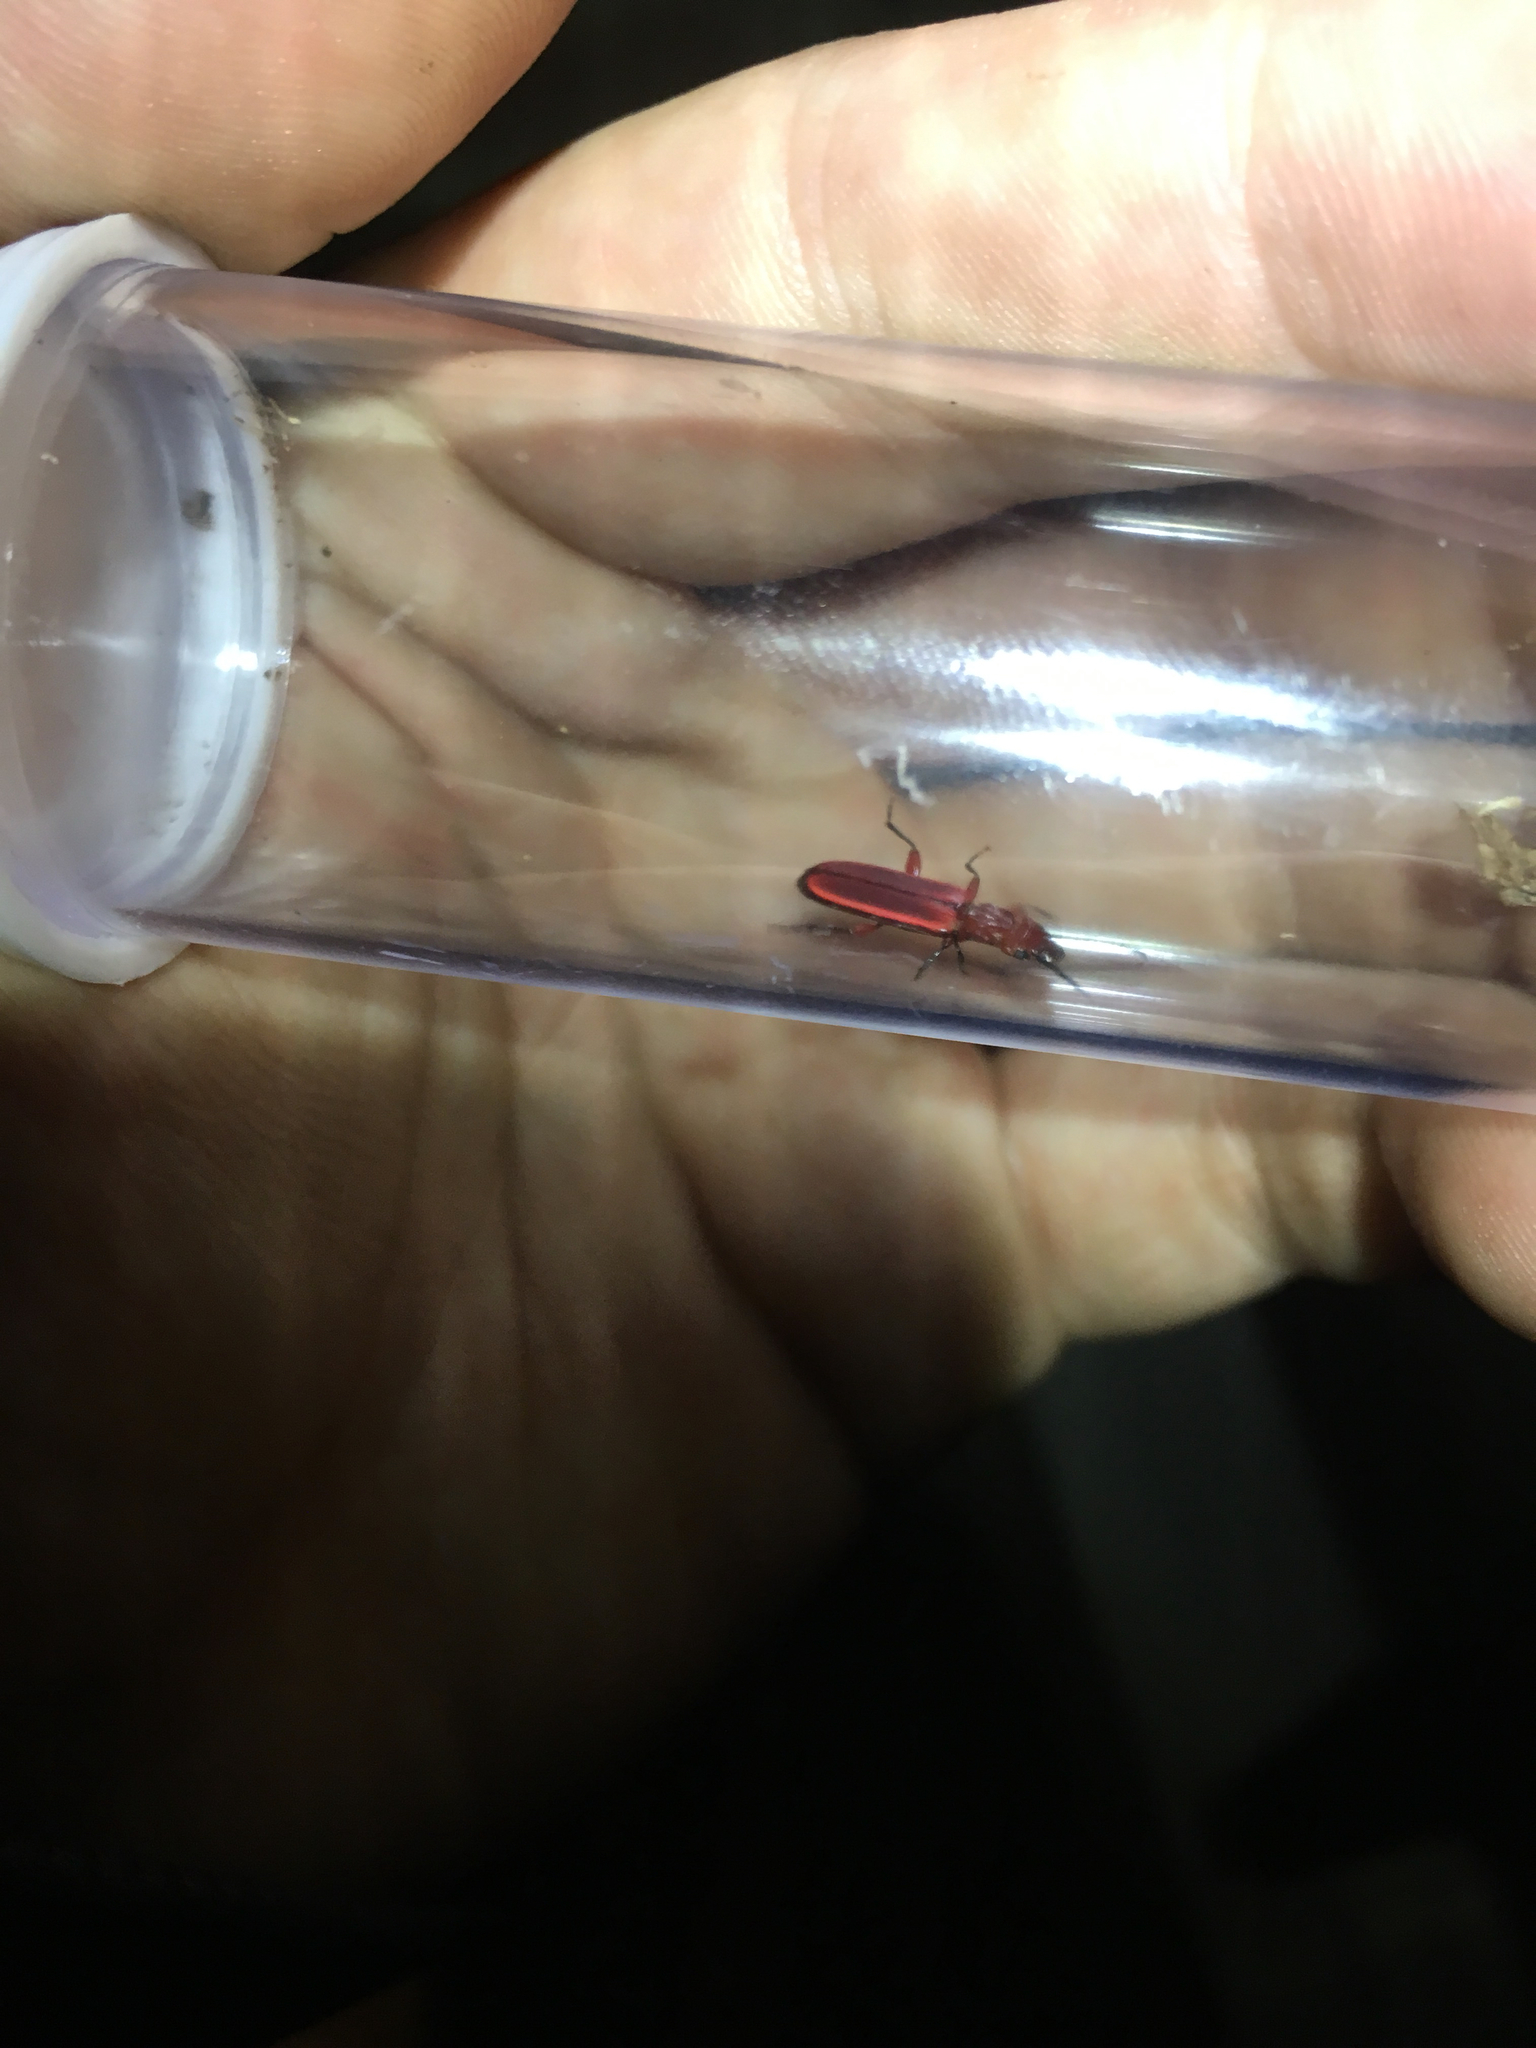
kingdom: Animalia
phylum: Arthropoda
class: Insecta
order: Coleoptera
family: Cucujidae
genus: Cucujus
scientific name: Cucujus clavipes
